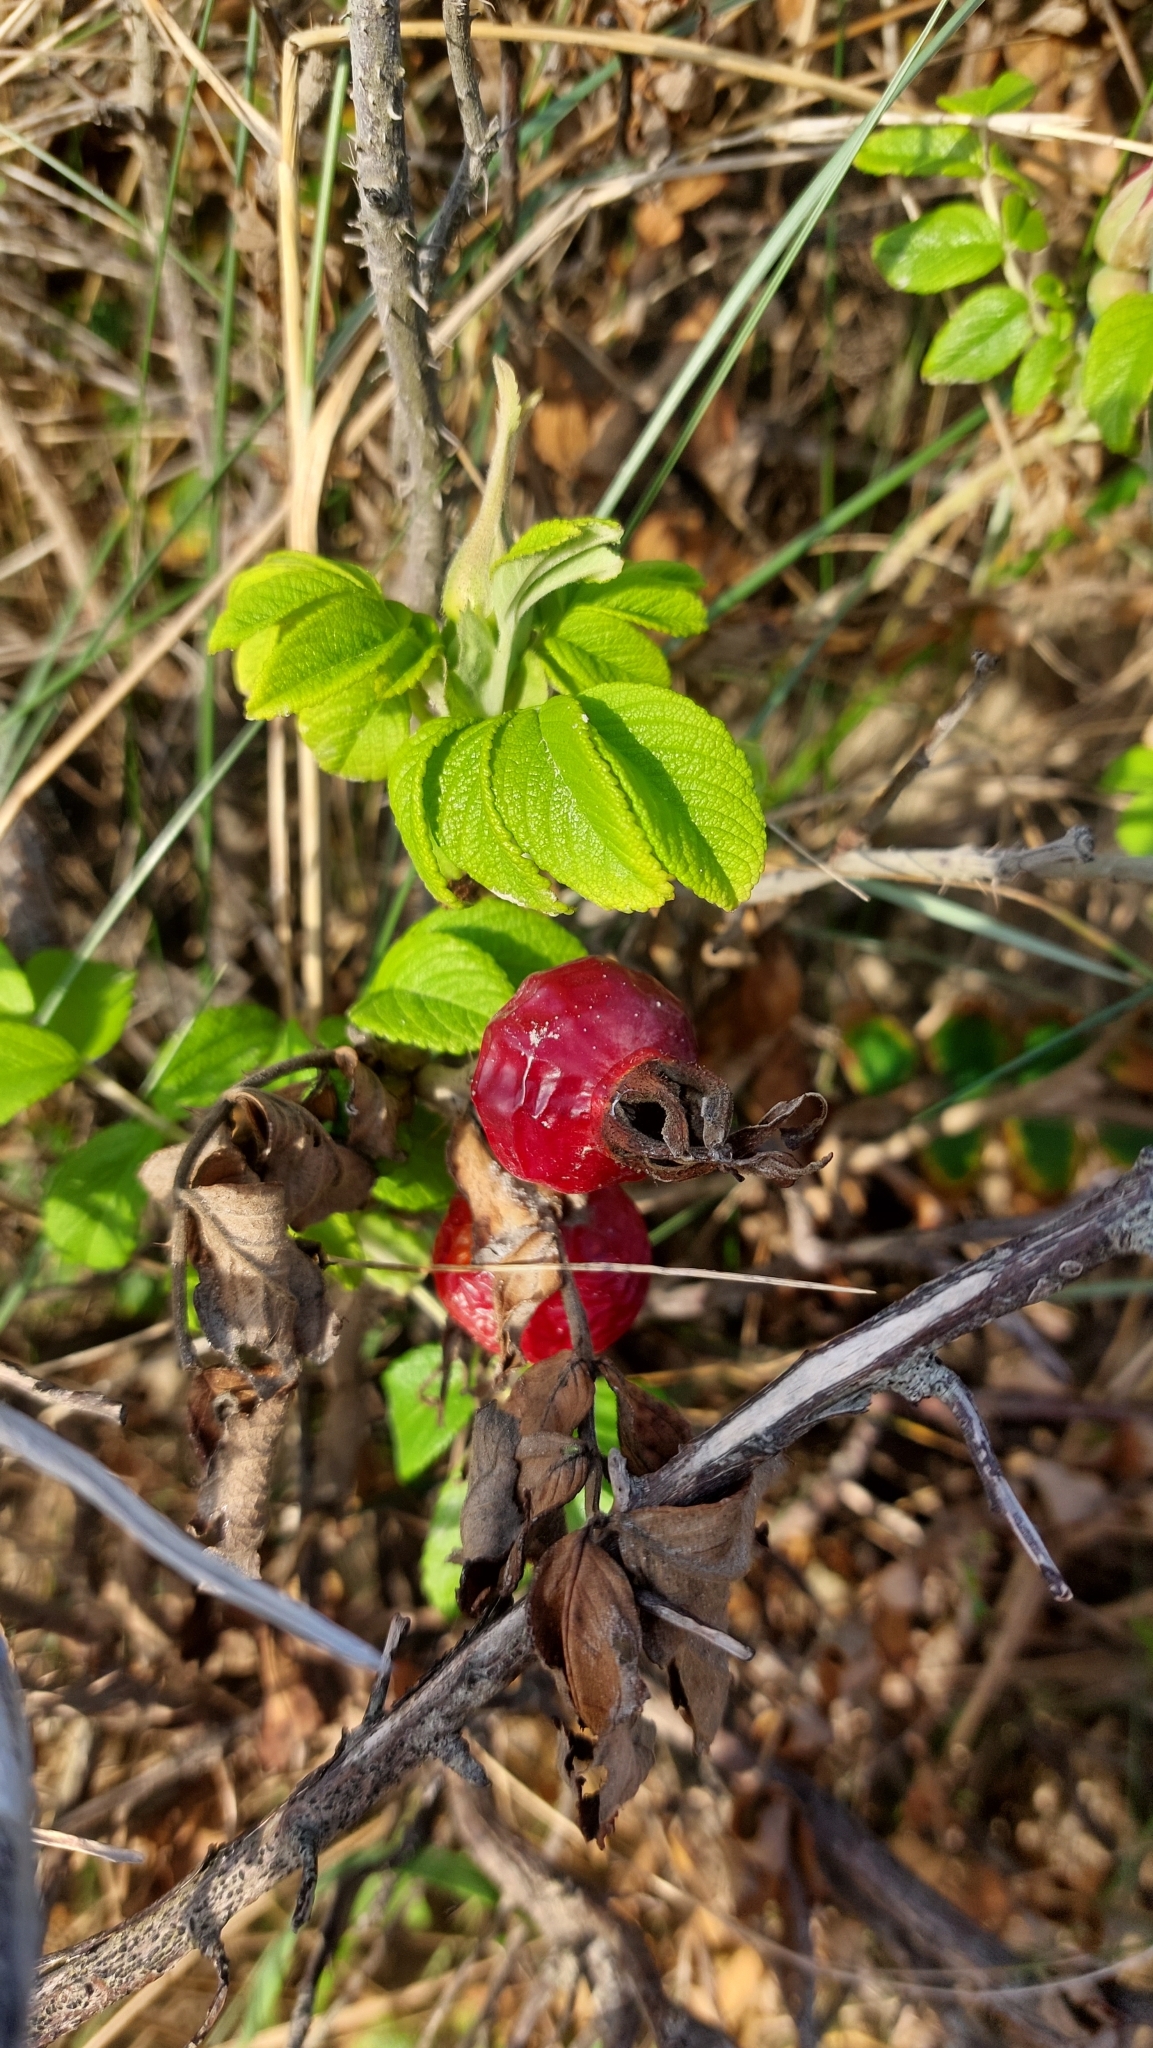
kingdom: Plantae
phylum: Tracheophyta
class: Magnoliopsida
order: Rosales
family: Rosaceae
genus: Rosa
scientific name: Rosa rugosa
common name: Japanese rose
